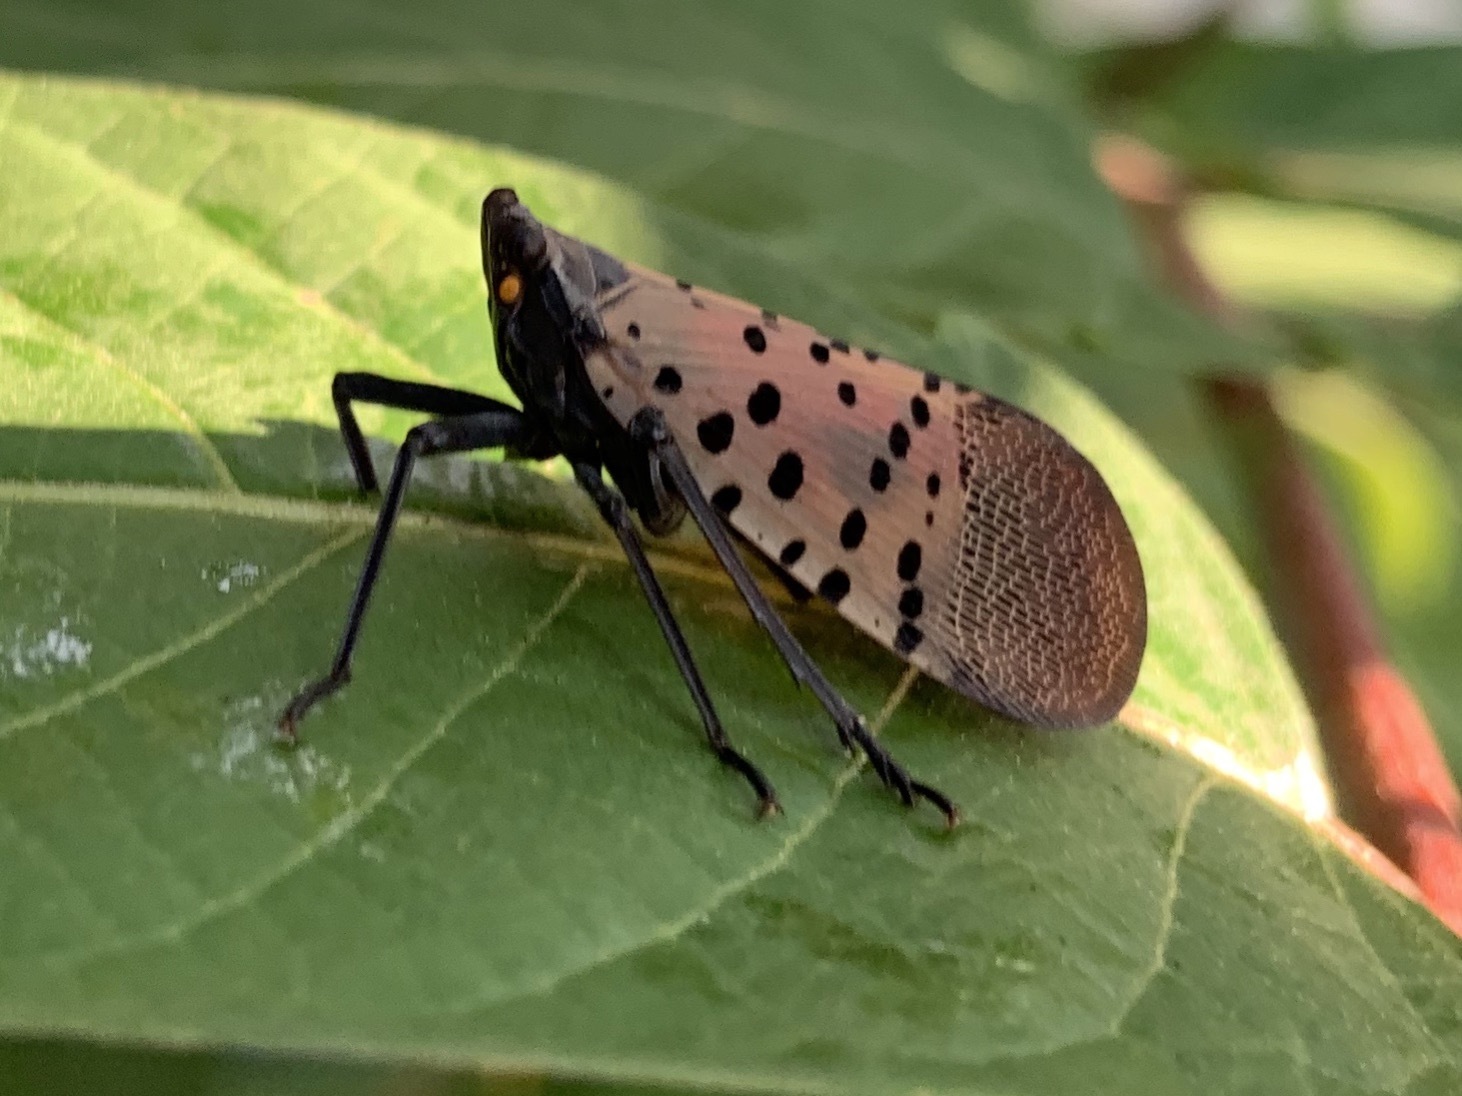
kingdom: Animalia
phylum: Arthropoda
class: Insecta
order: Hemiptera
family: Fulgoridae
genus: Lycorma
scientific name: Lycorma delicatula
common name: Spotted lanternfly
